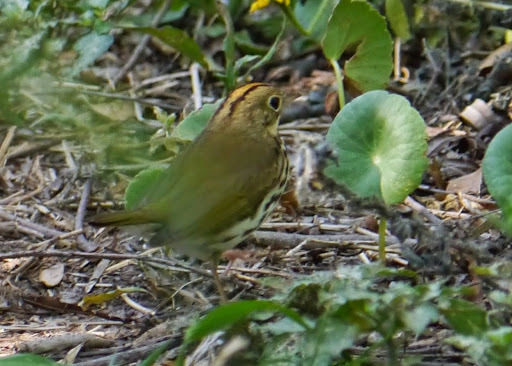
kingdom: Animalia
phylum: Chordata
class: Aves
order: Passeriformes
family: Parulidae
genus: Seiurus
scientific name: Seiurus aurocapilla
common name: Ovenbird
